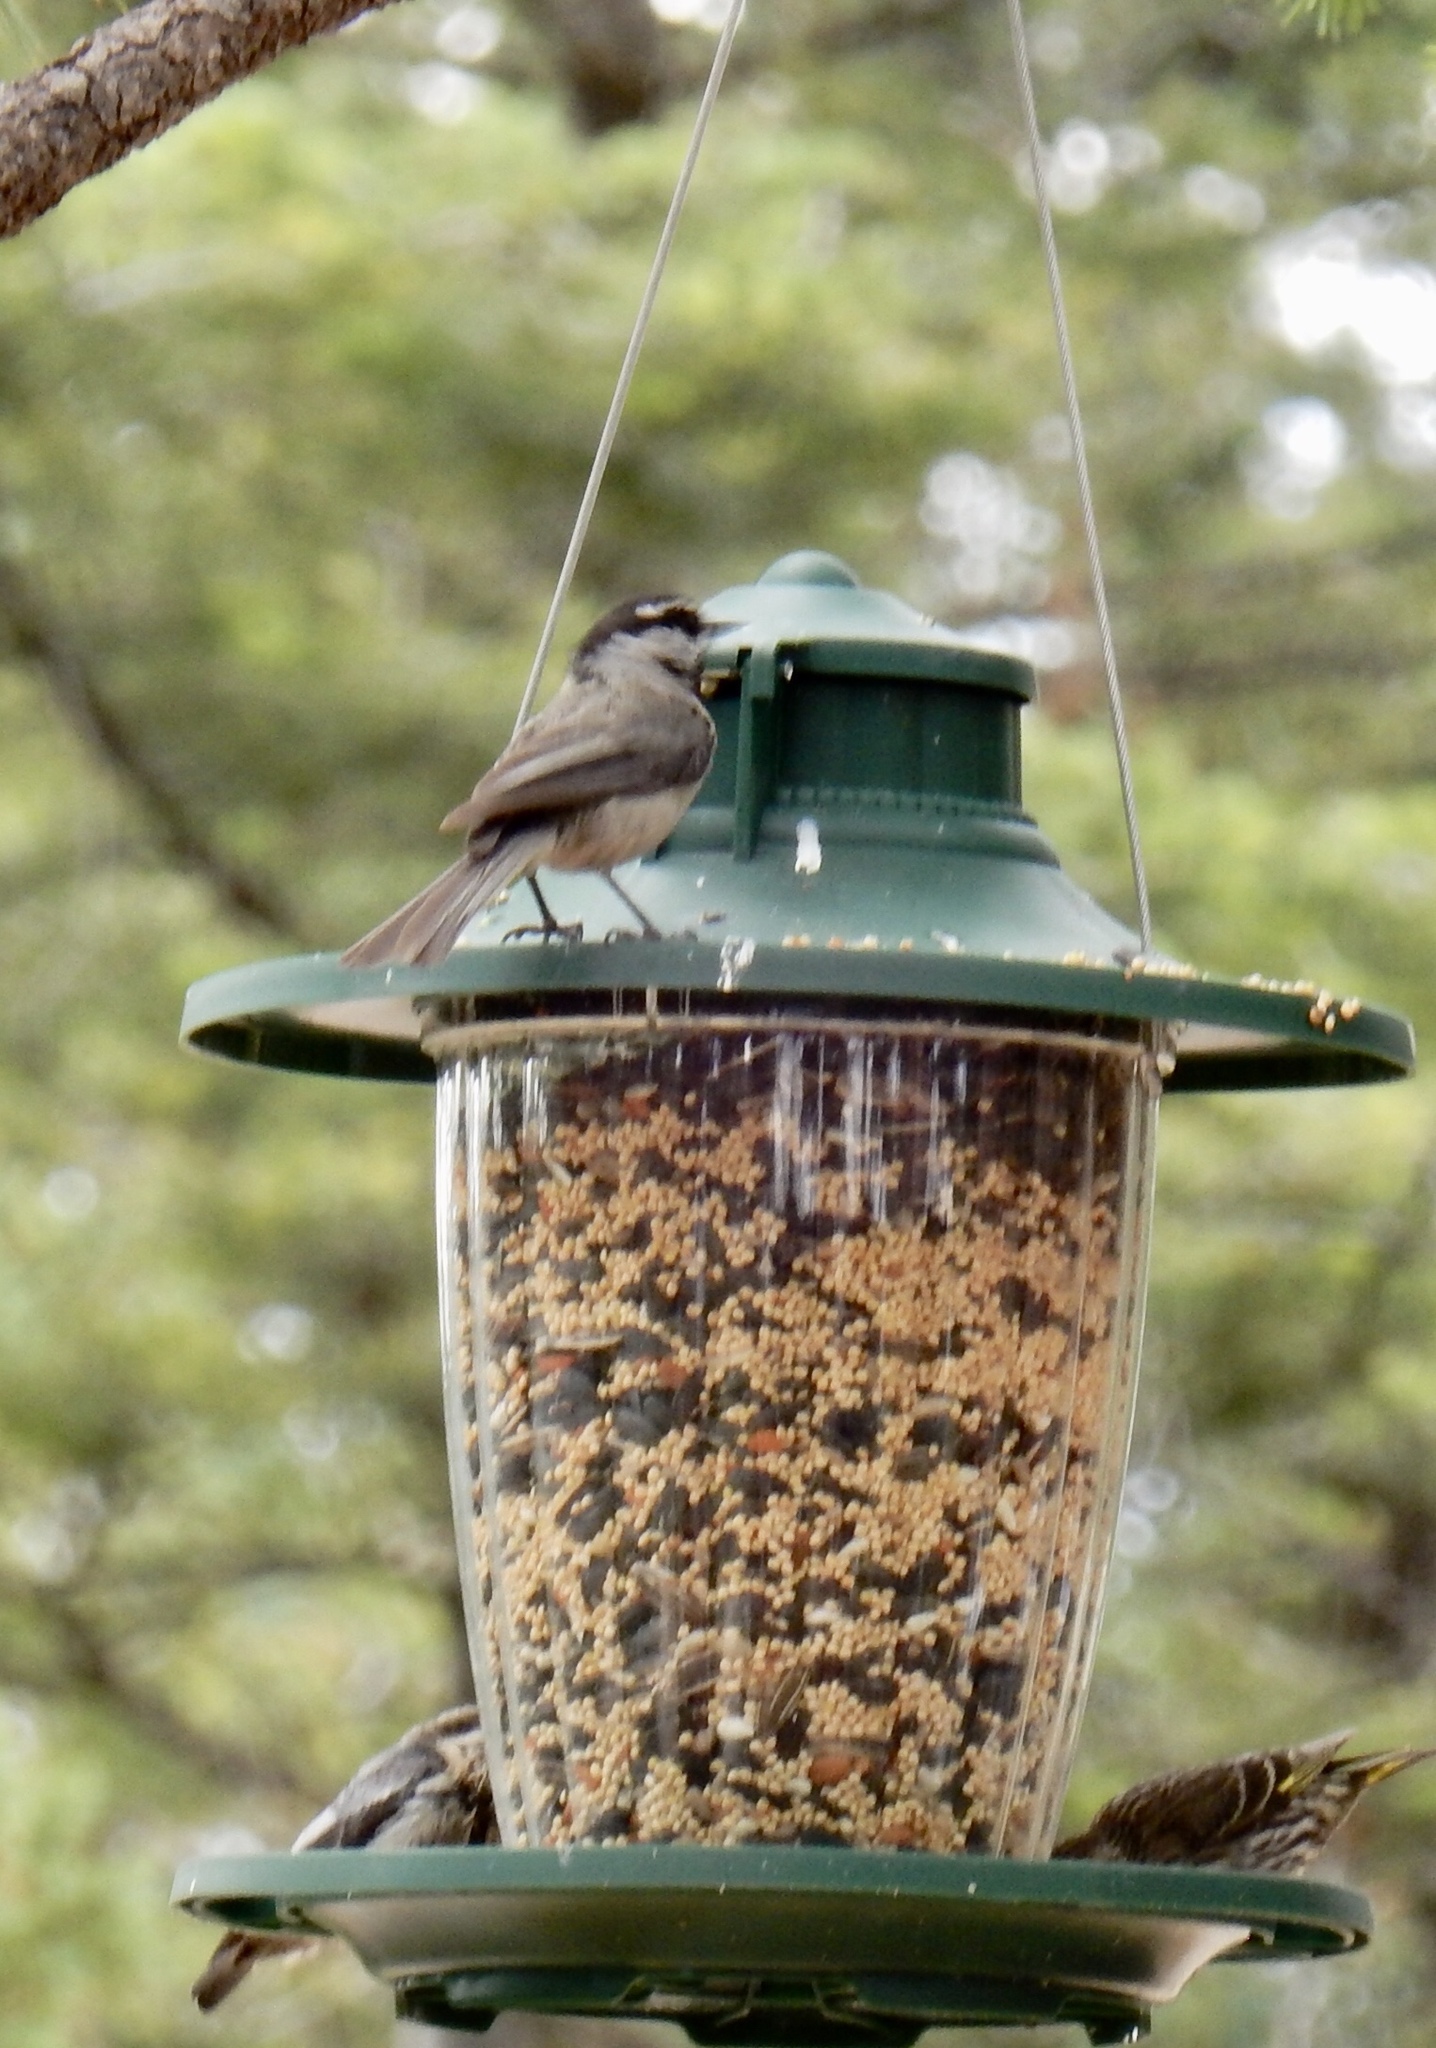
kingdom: Animalia
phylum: Chordata
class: Aves
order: Passeriformes
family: Paridae
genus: Poecile
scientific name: Poecile gambeli
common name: Mountain chickadee
